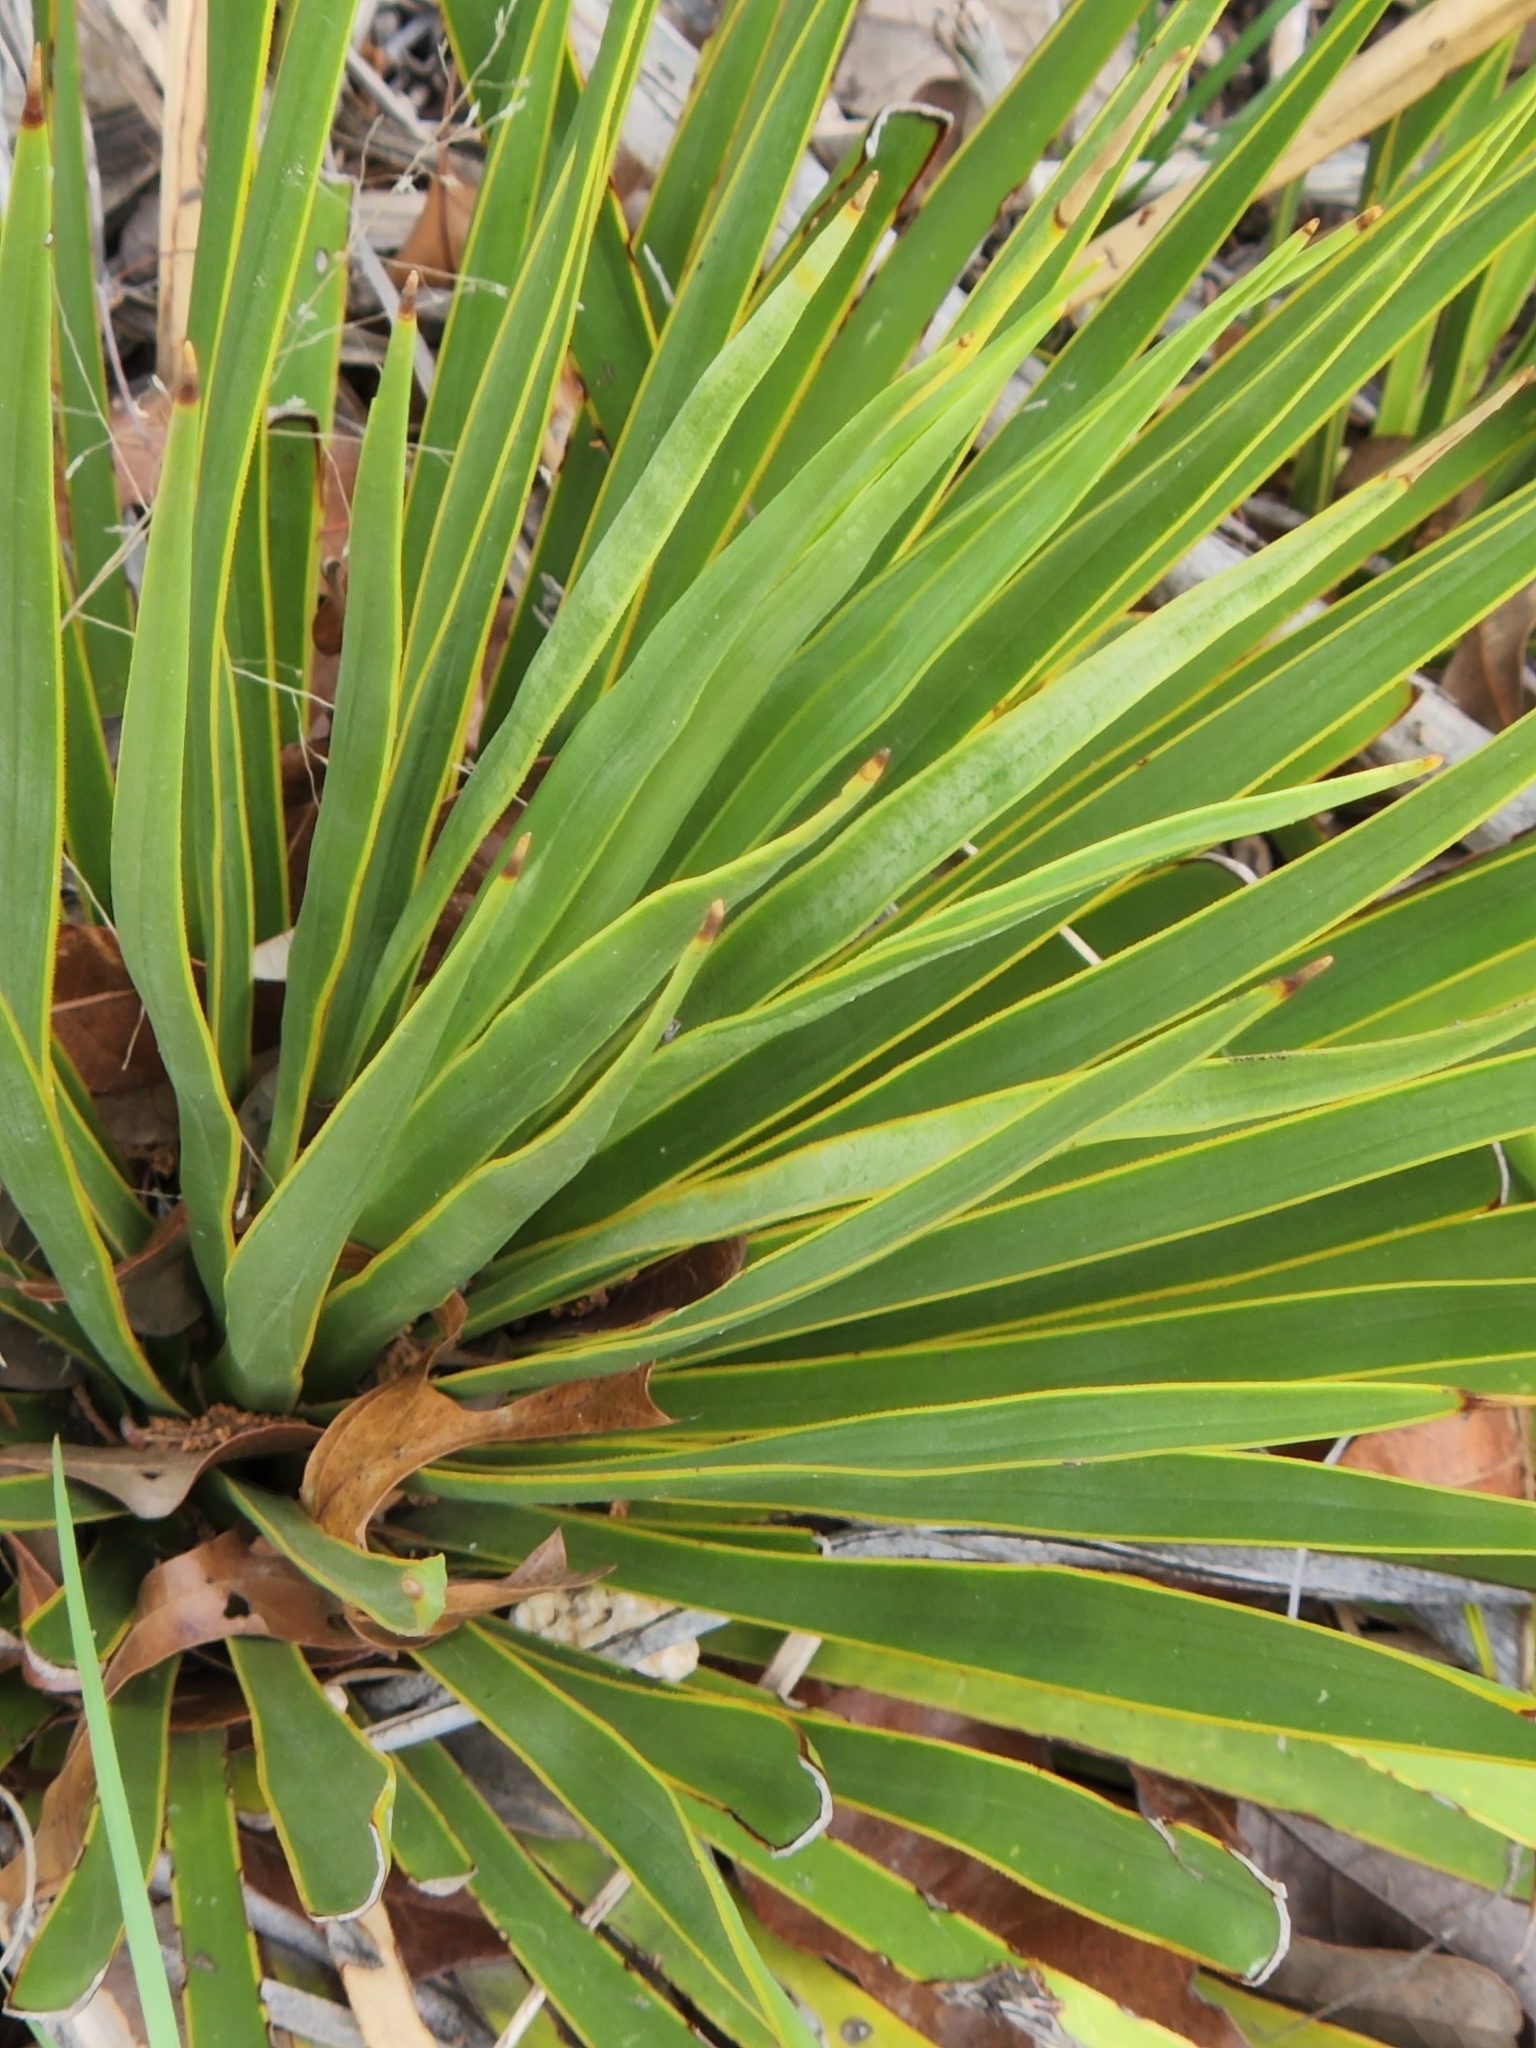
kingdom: Plantae
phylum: Tracheophyta
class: Liliopsida
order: Asparagales
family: Asparagaceae
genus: Yucca
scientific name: Yucca reverchonii
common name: San angelo yucca
